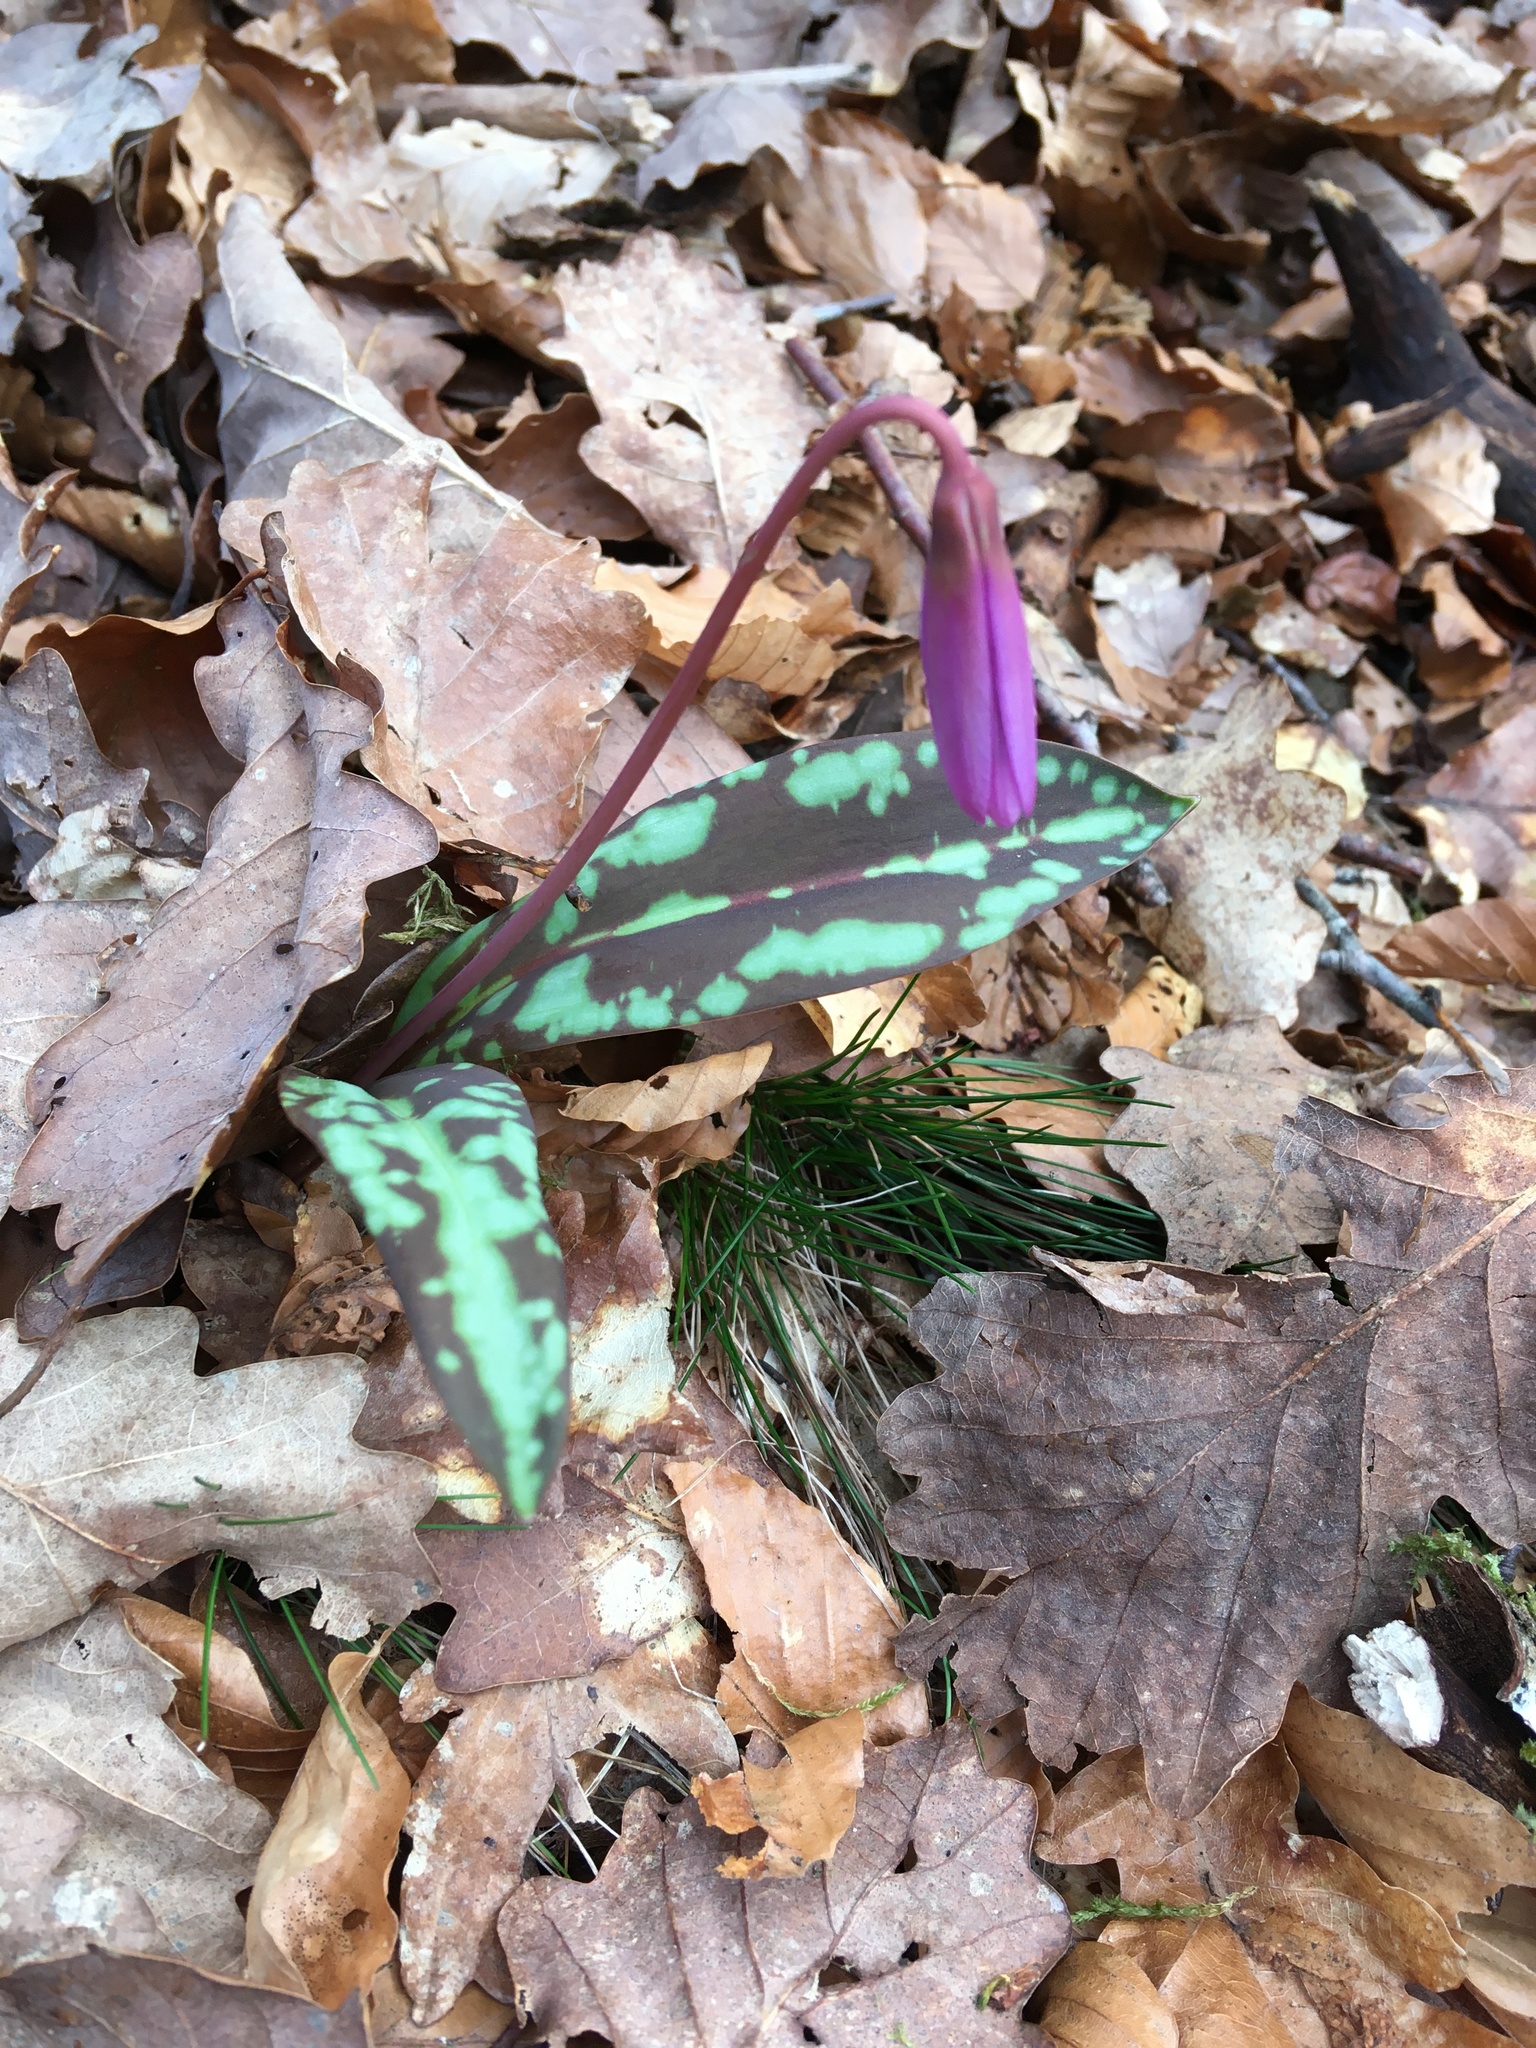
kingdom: Plantae
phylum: Tracheophyta
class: Liliopsida
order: Liliales
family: Liliaceae
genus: Erythronium
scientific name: Erythronium dens-canis
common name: Dog's-tooth-violet
